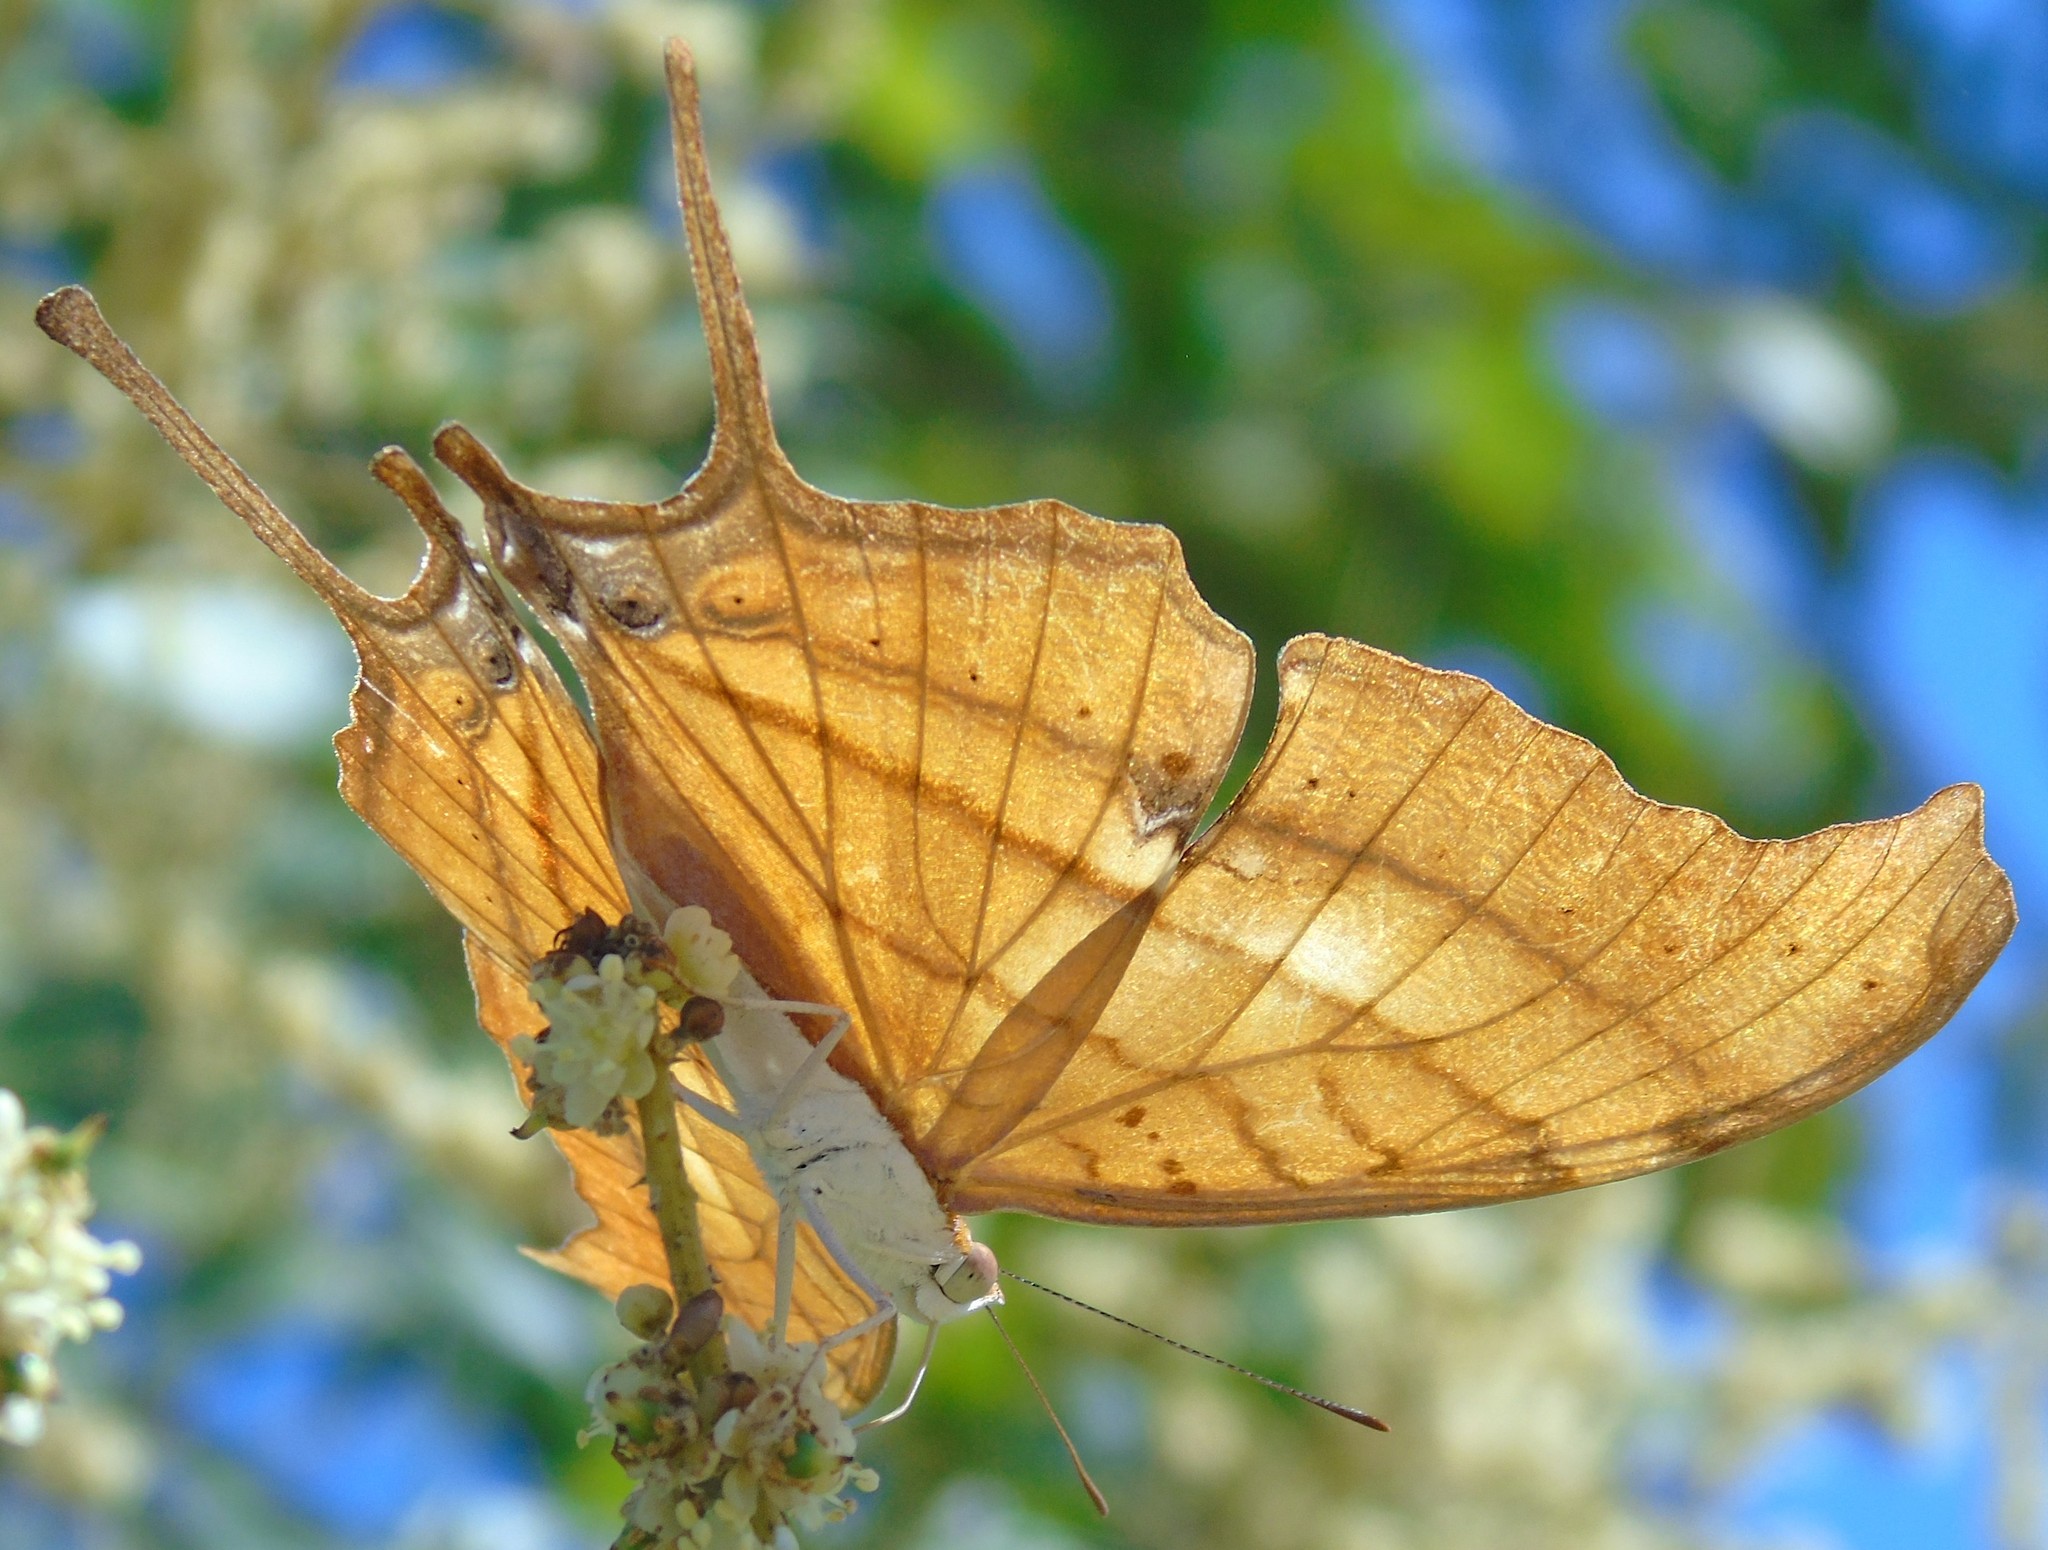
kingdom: Animalia
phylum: Arthropoda
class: Insecta
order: Lepidoptera
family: Nymphalidae
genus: Marpesia
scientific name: Marpesia petreus
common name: Red dagger wing
